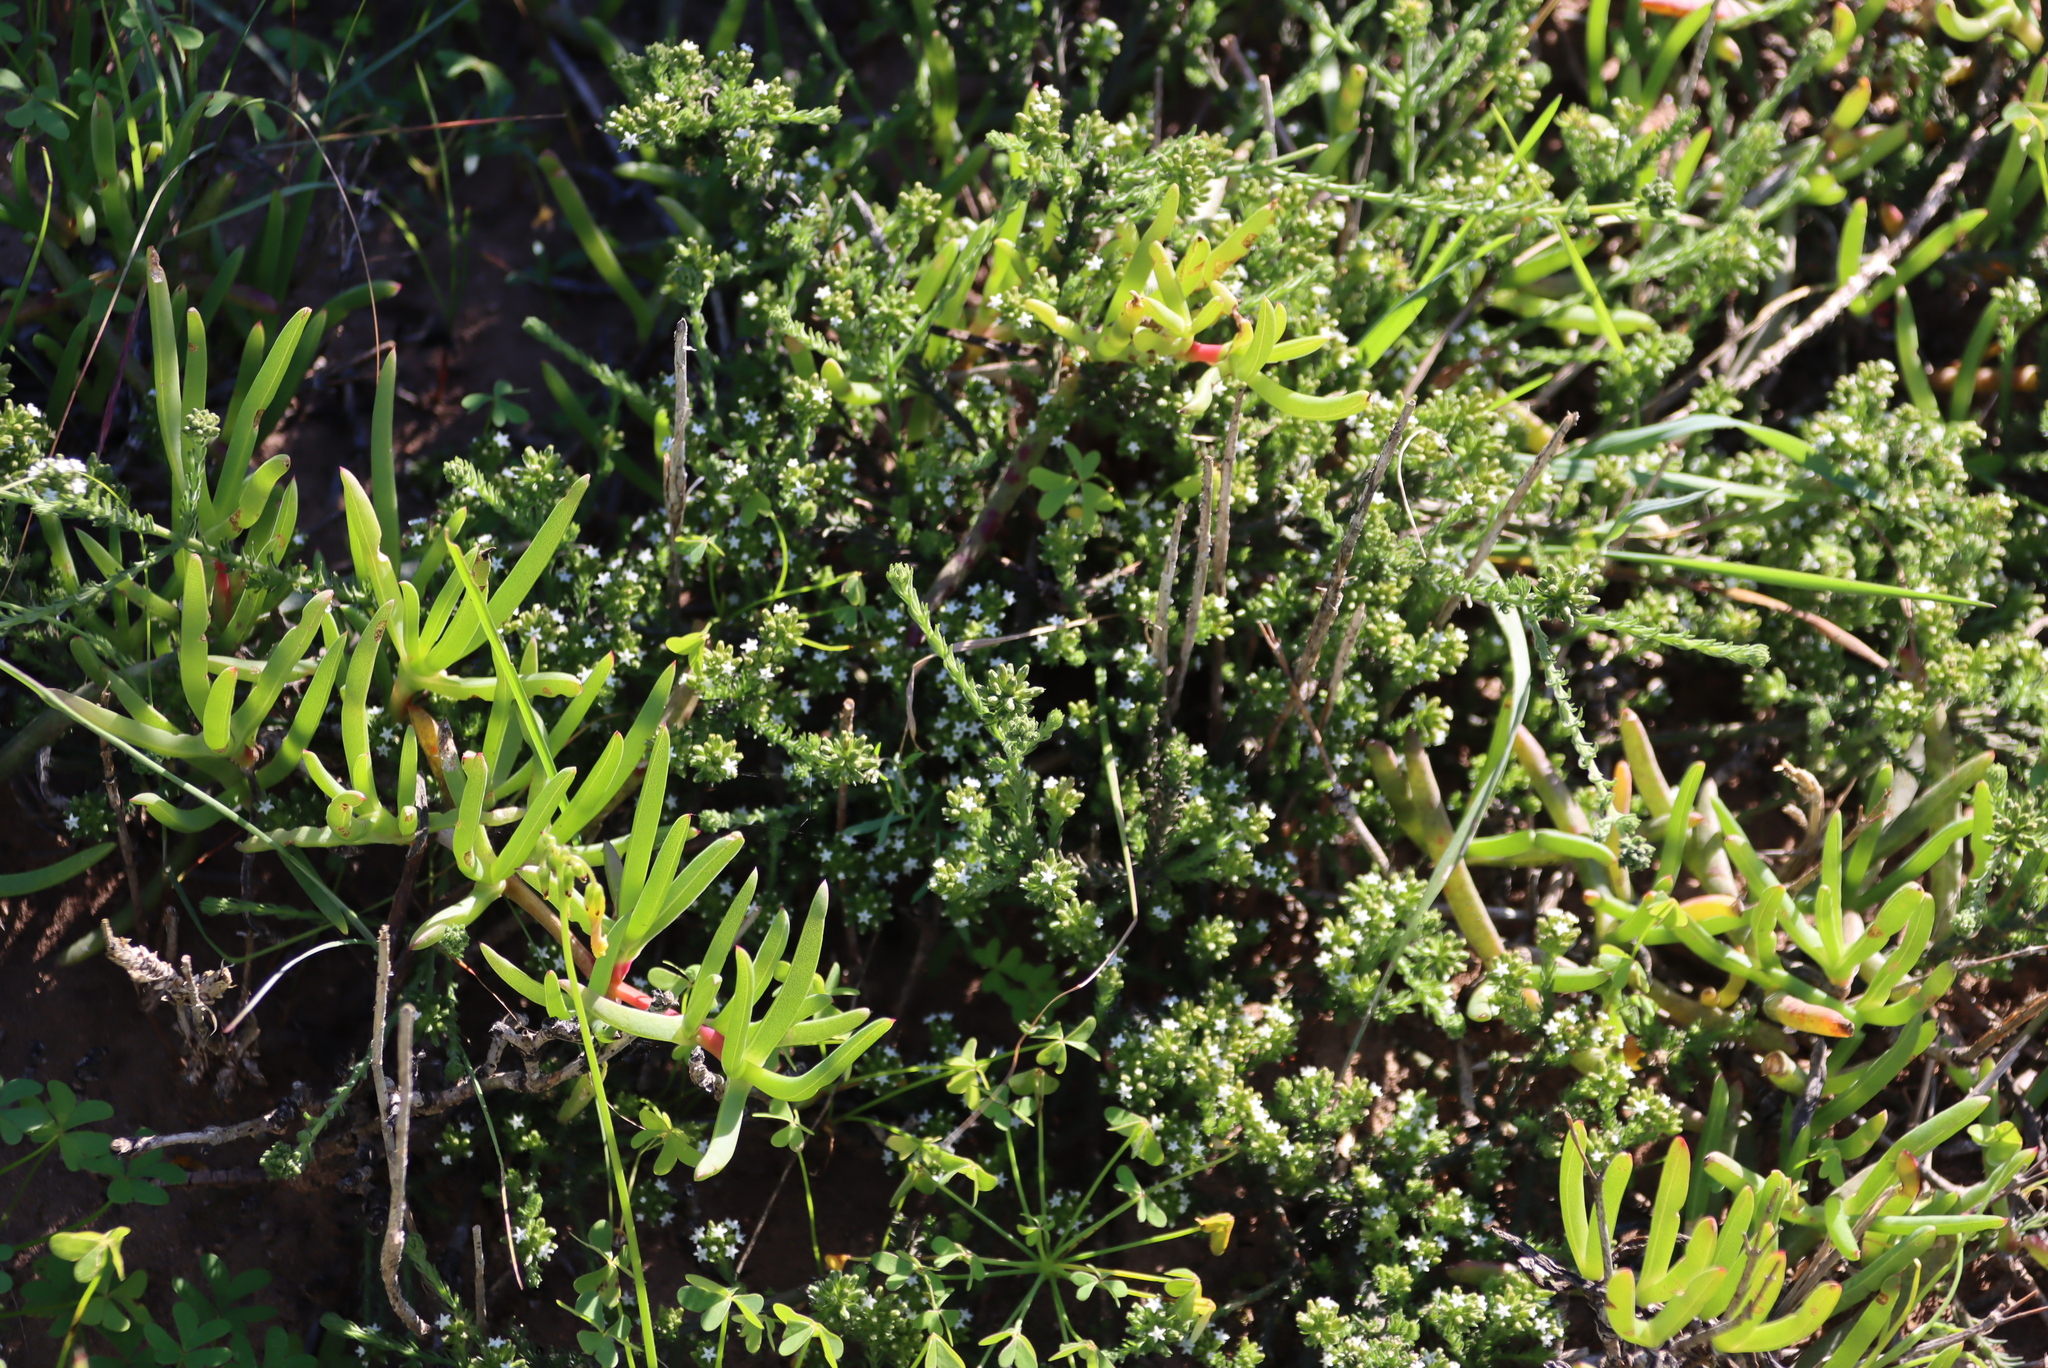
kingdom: Plantae
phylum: Tracheophyta
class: Magnoliopsida
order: Santalales
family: Thesiaceae
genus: Thesium
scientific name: Thesium pubescens
